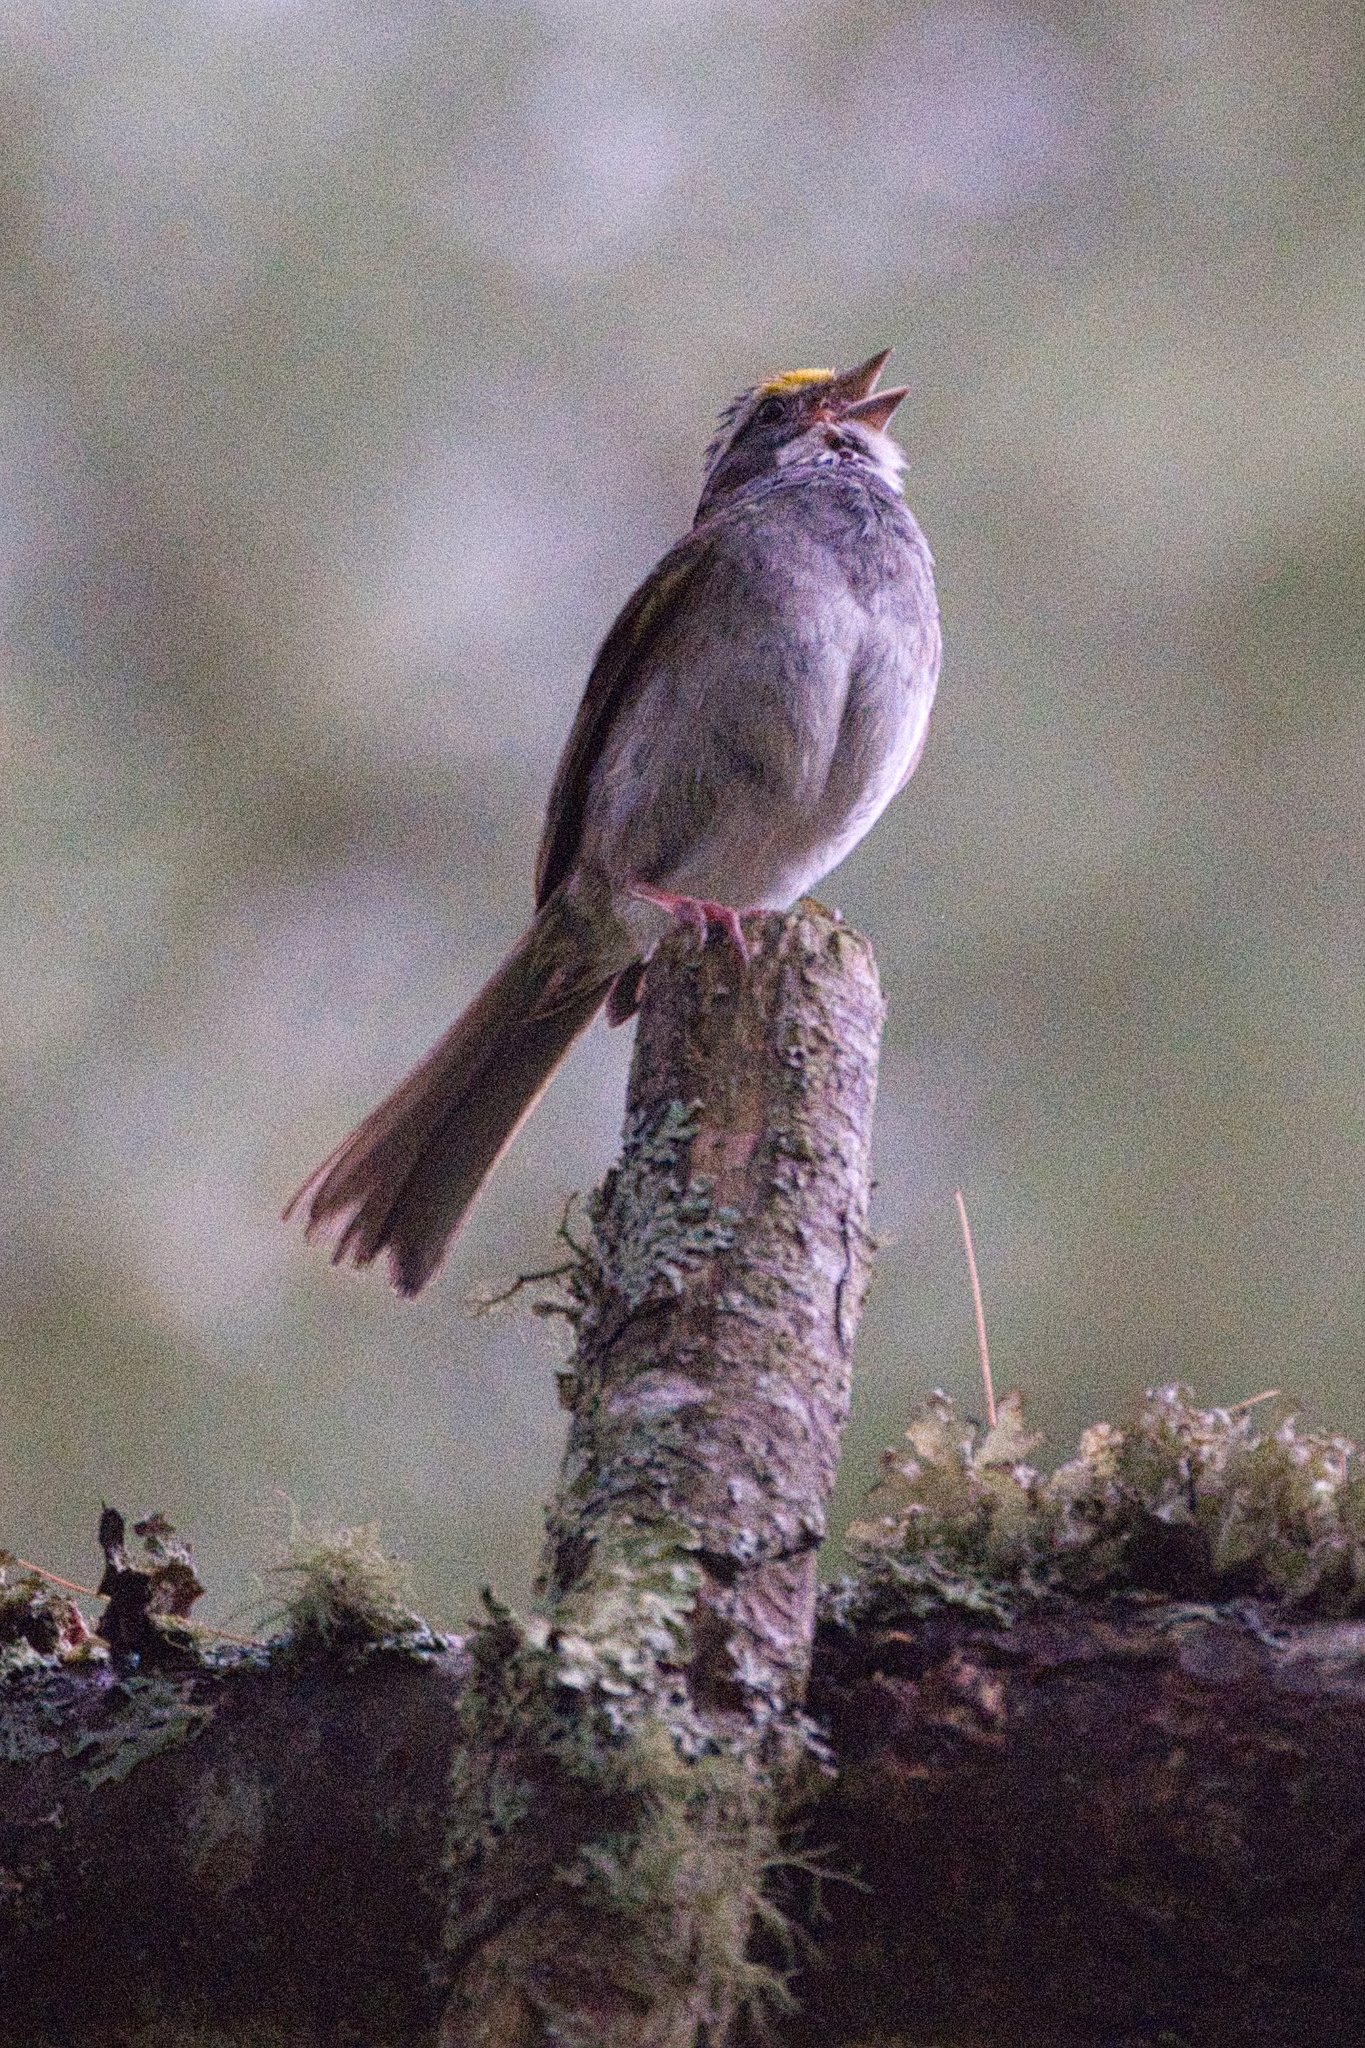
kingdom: Animalia
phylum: Chordata
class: Aves
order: Passeriformes
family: Passerellidae
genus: Zonotrichia
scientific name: Zonotrichia albicollis
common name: White-throated sparrow
